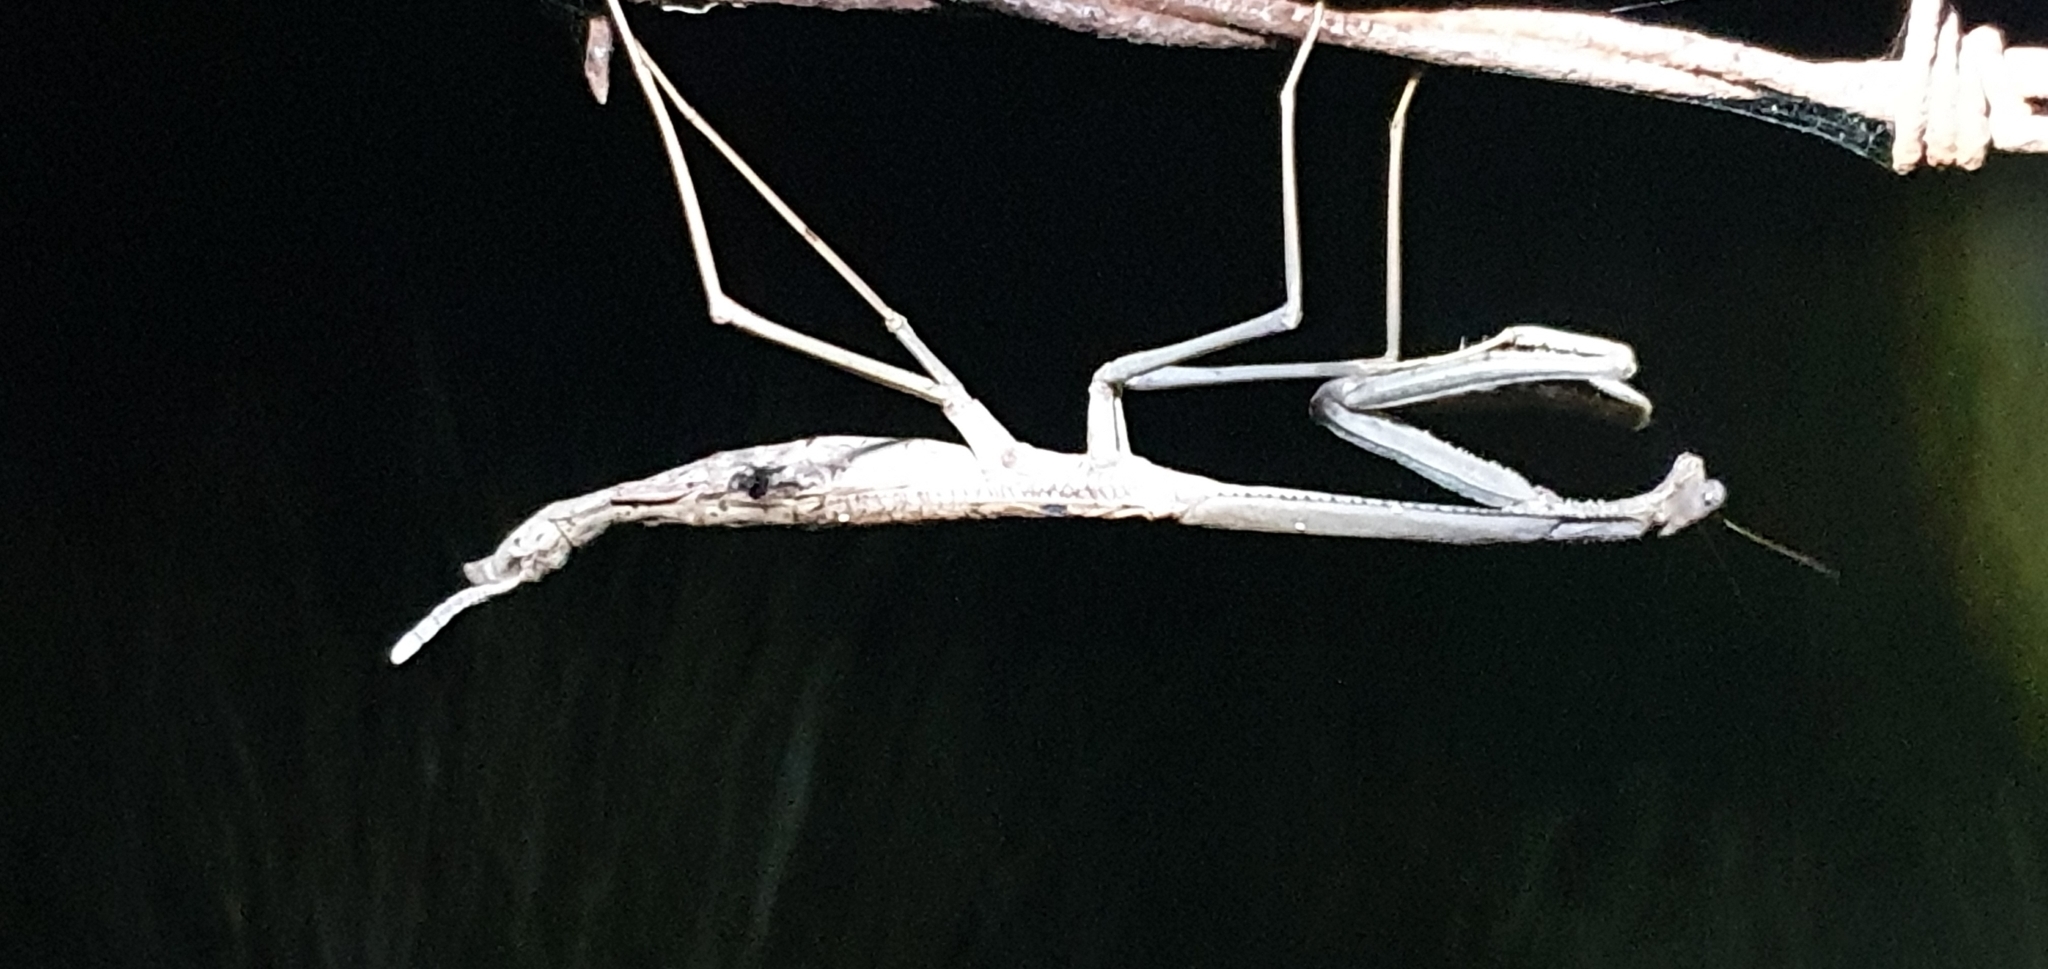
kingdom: Animalia
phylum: Arthropoda
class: Insecta
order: Mantodea
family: Mantidae
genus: Archimantis
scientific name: Archimantis armata
